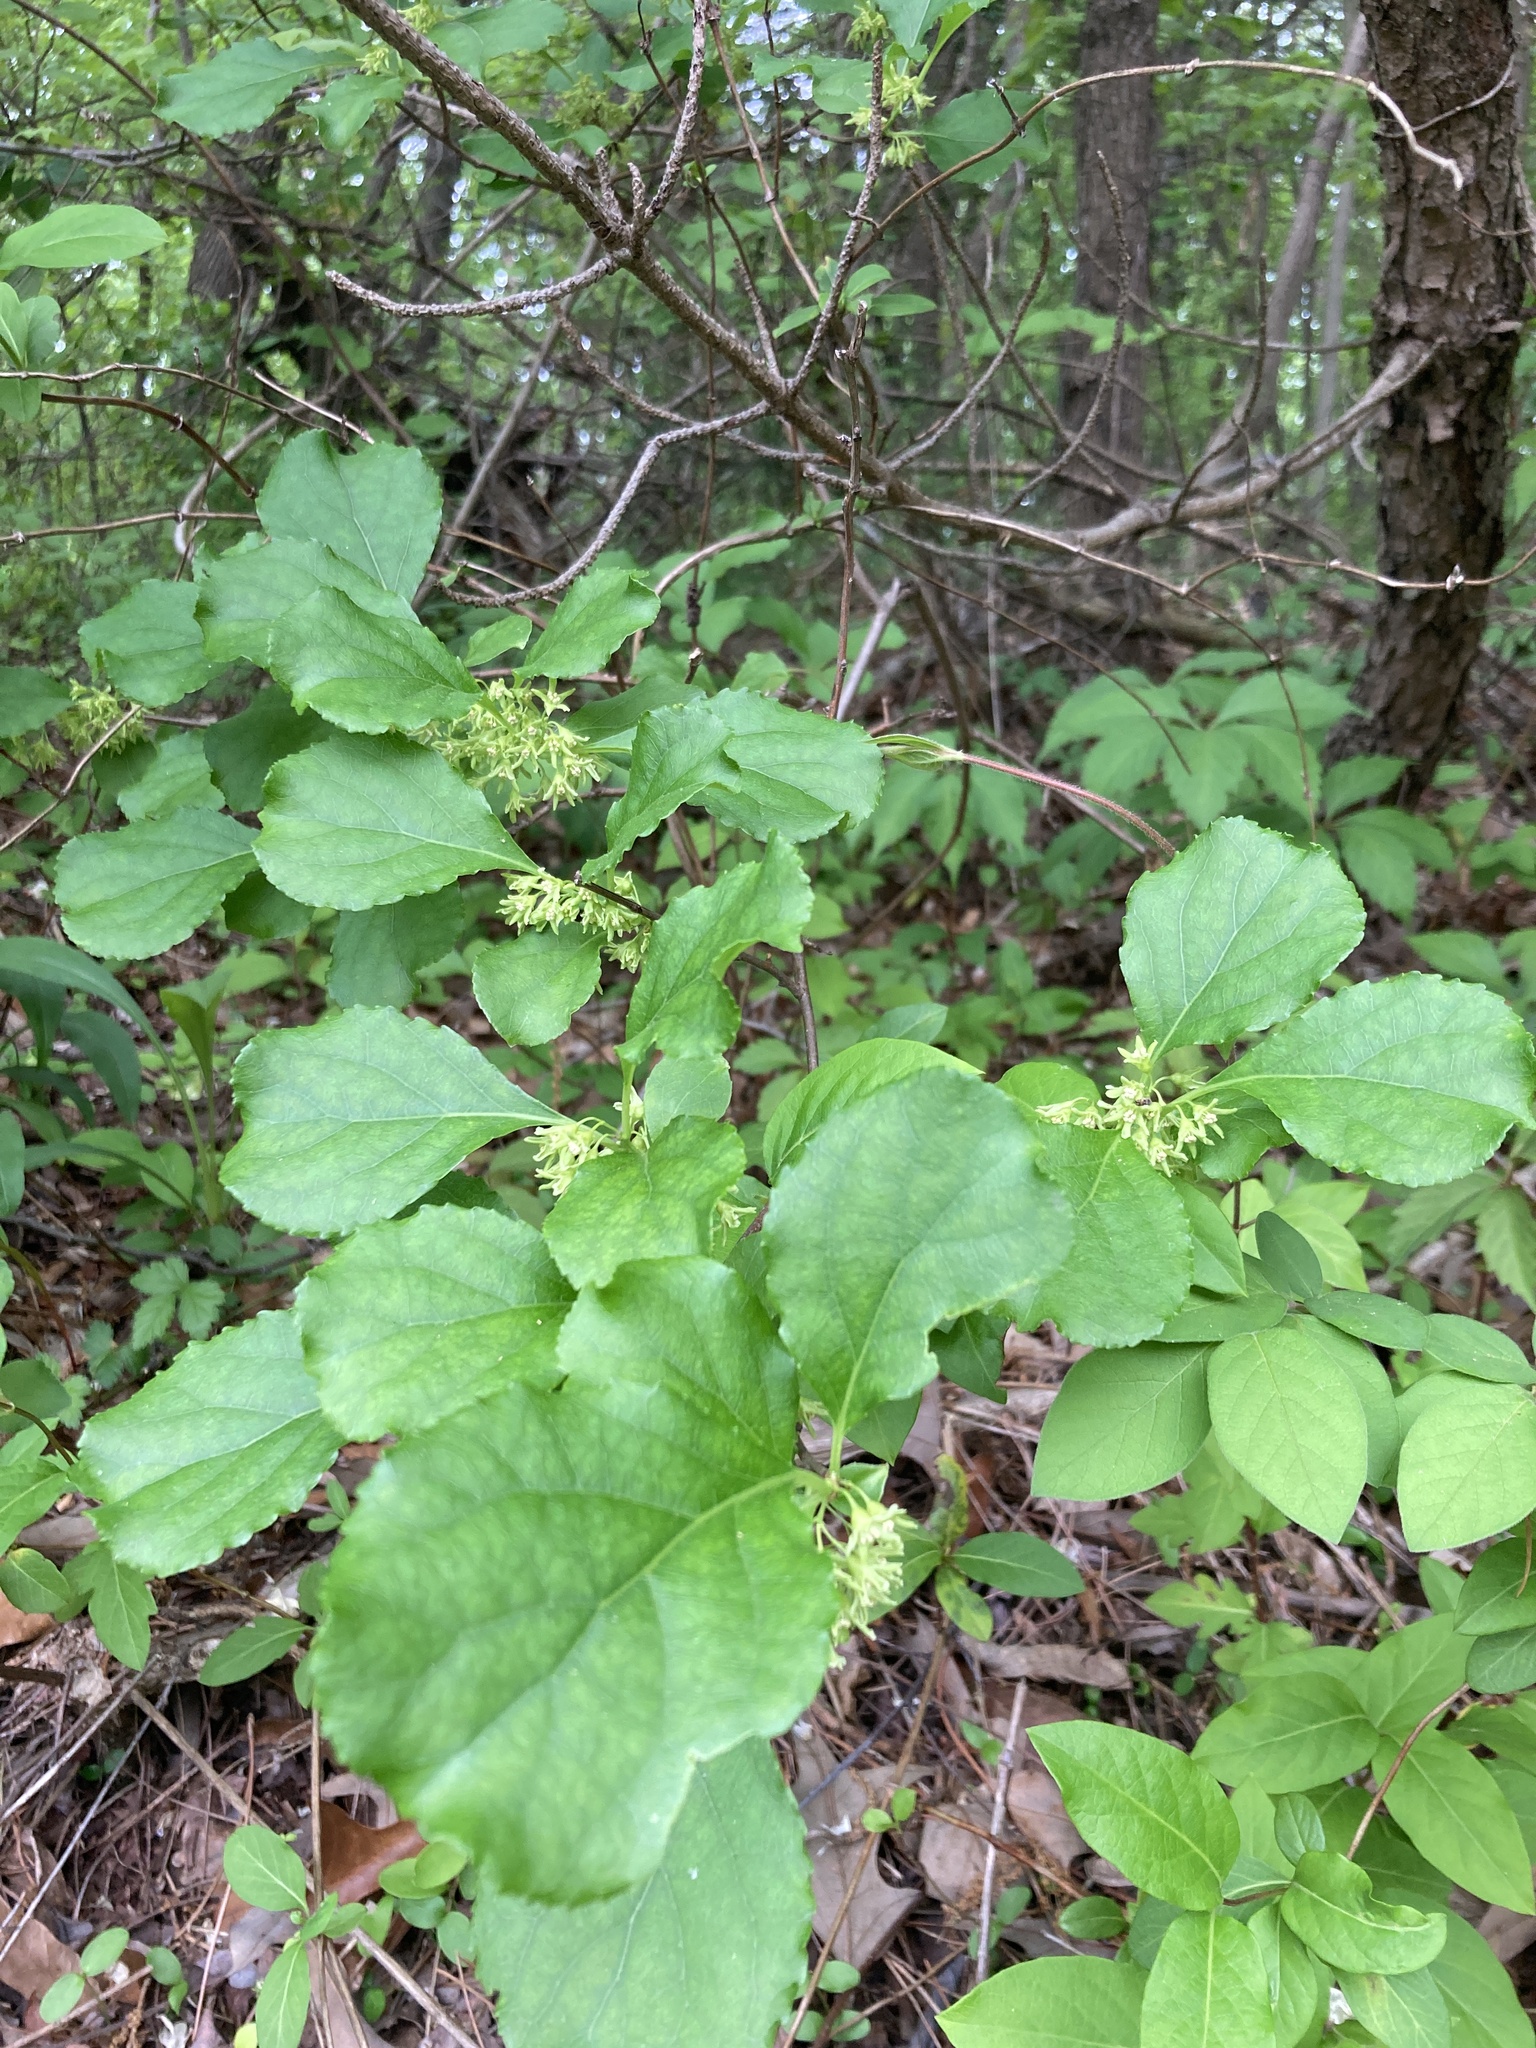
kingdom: Plantae
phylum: Tracheophyta
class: Magnoliopsida
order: Celastrales
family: Celastraceae
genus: Celastrus
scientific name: Celastrus orbiculatus
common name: Oriental bittersweet
